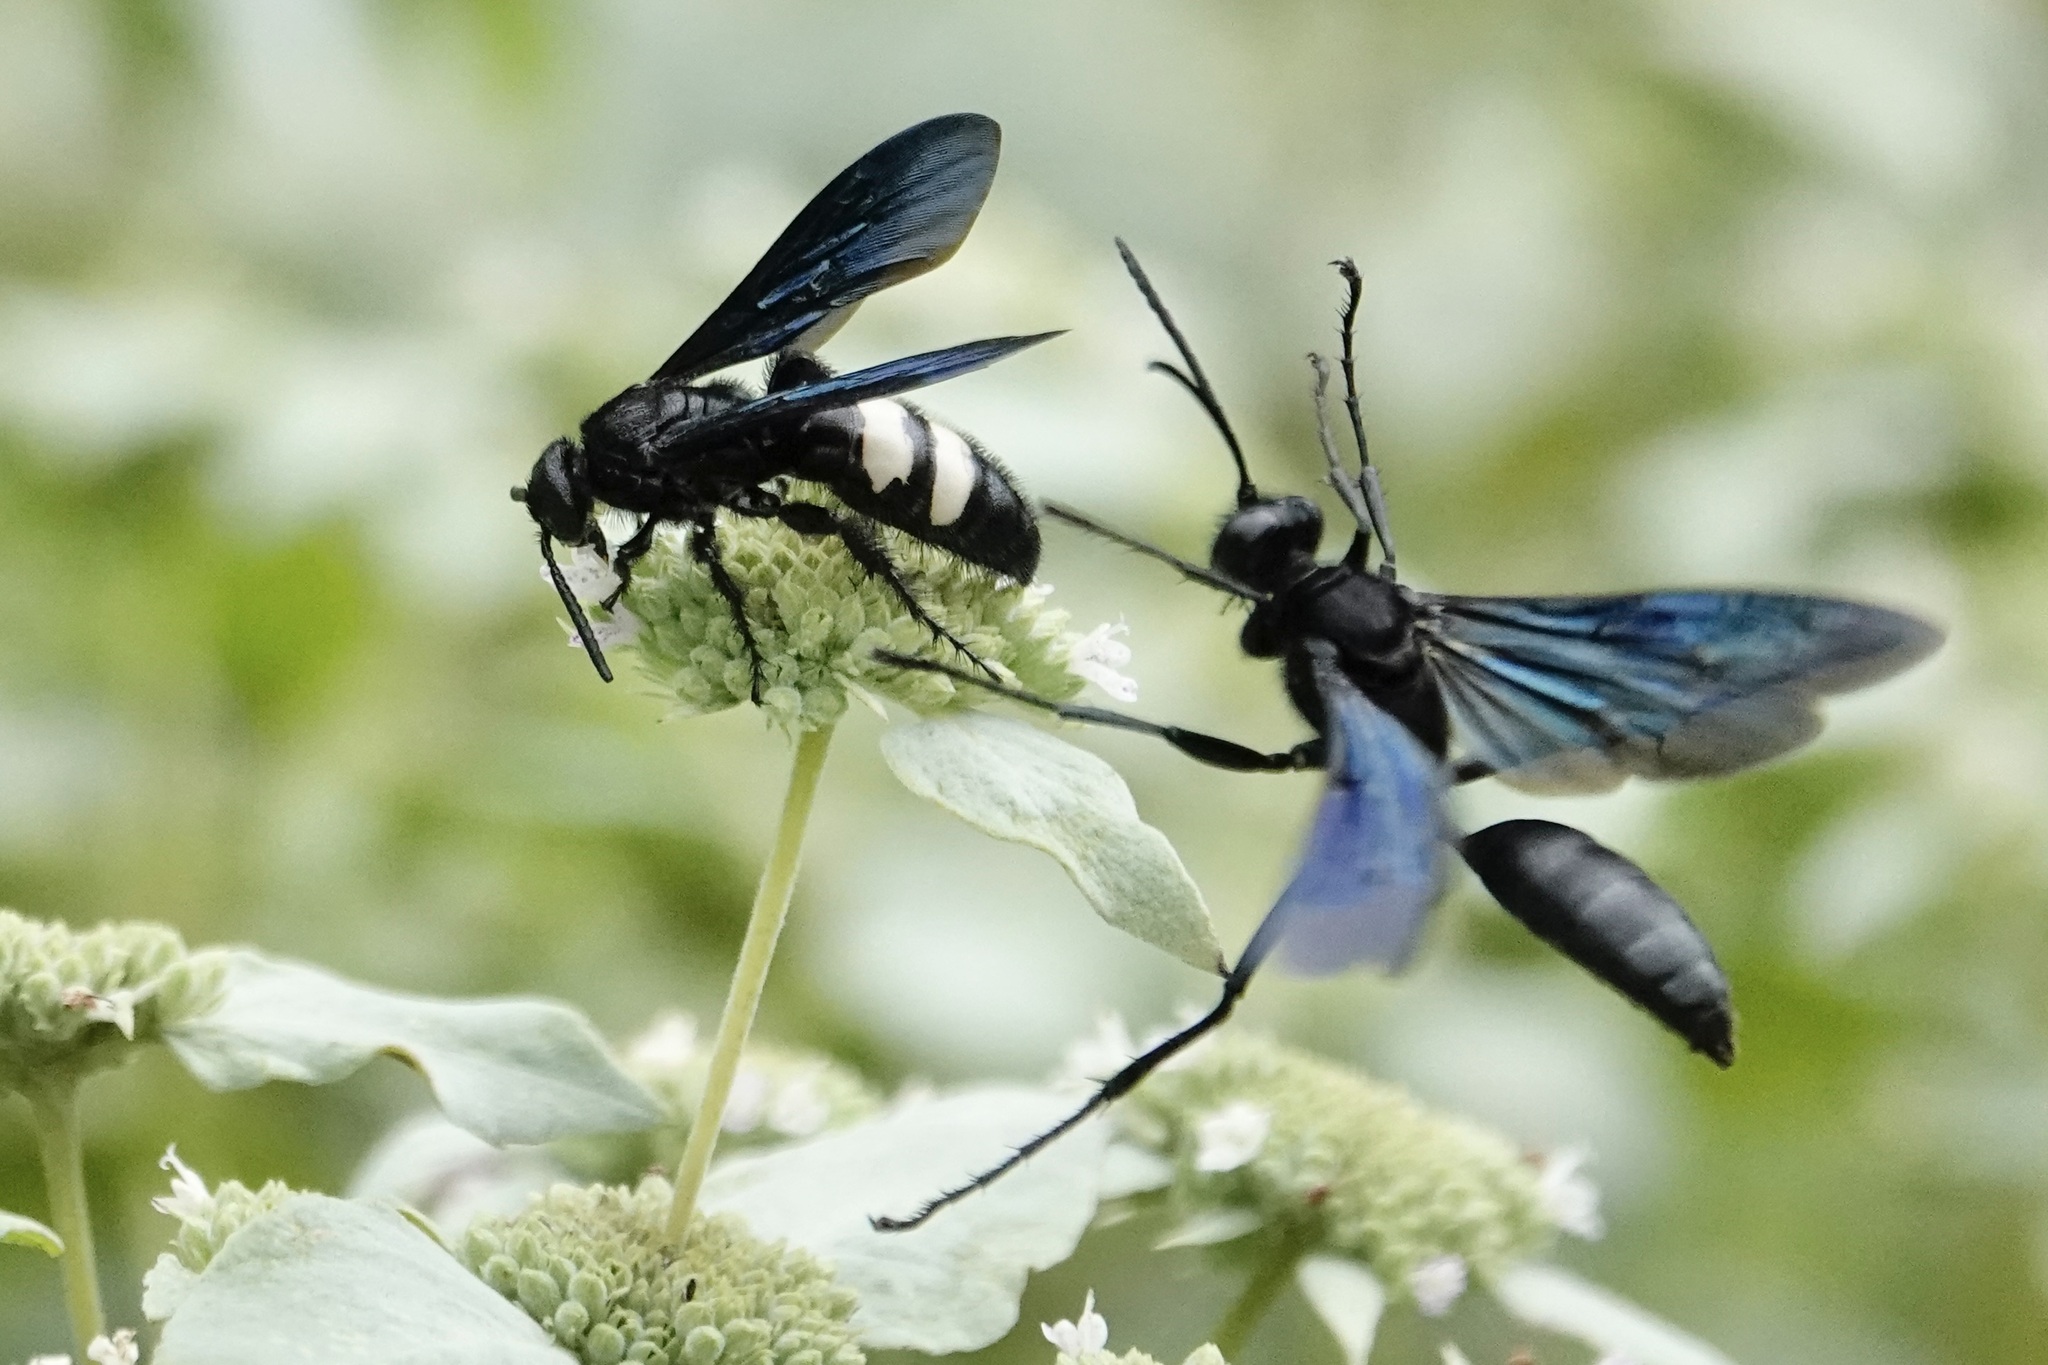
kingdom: Animalia
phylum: Arthropoda
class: Insecta
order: Hymenoptera
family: Scoliidae
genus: Scolia
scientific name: Scolia bicincta
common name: Double-banded scoliid wasp
